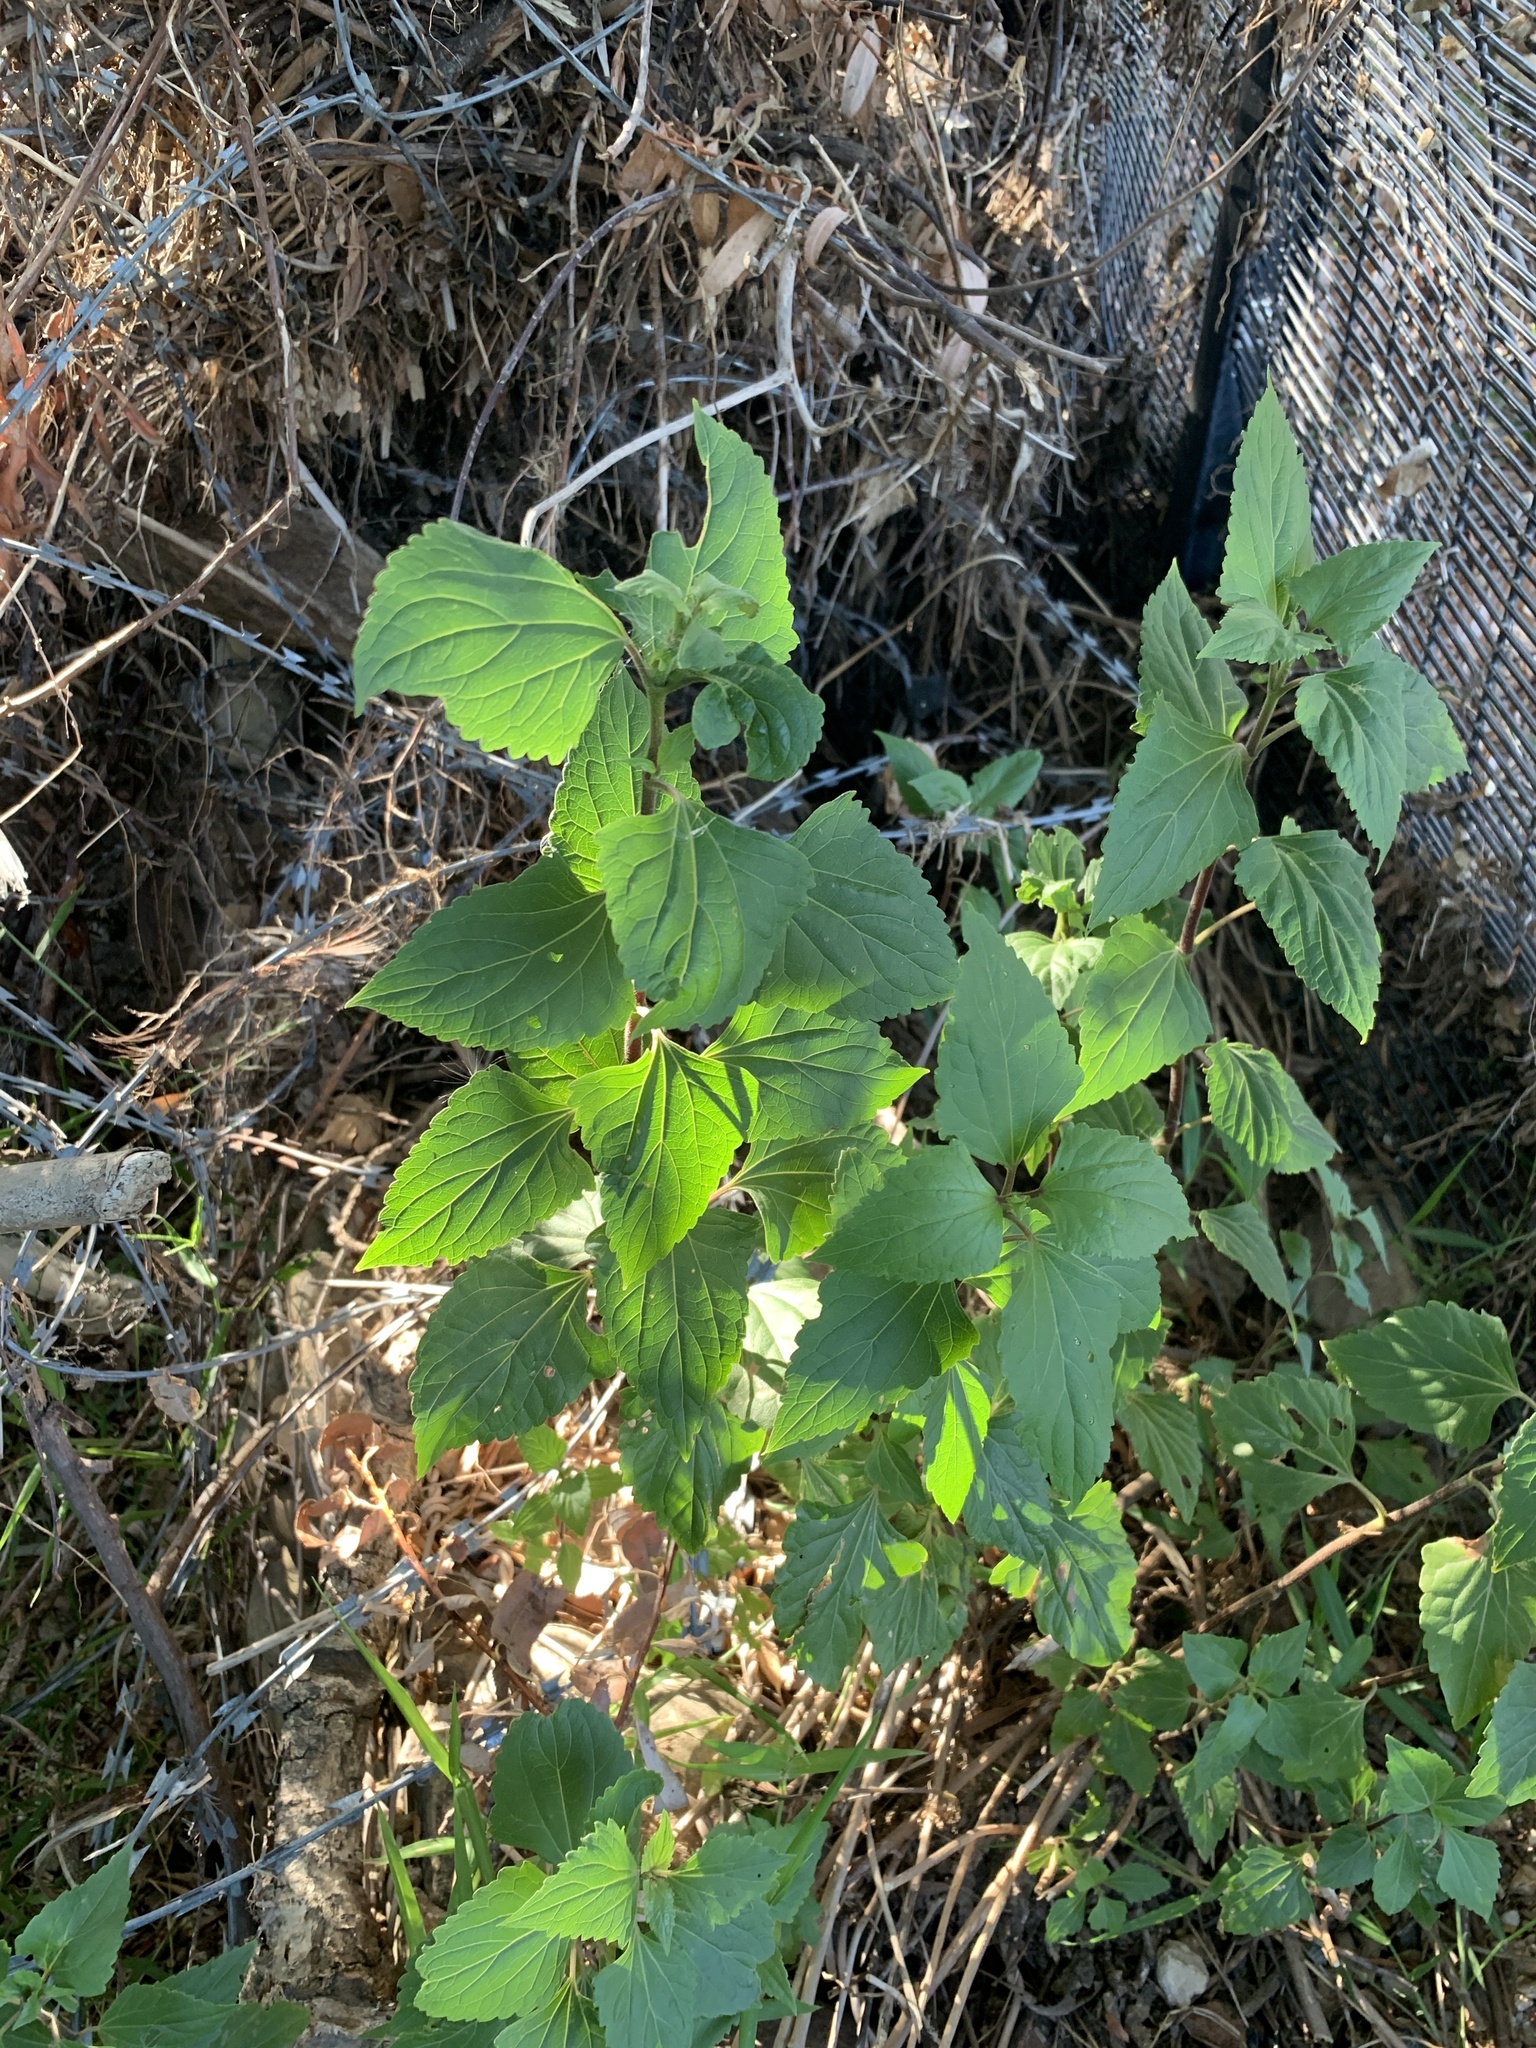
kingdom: Plantae
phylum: Tracheophyta
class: Magnoliopsida
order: Asterales
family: Asteraceae
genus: Ageratina
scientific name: Ageratina adenophora
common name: Sticky snakeroot
